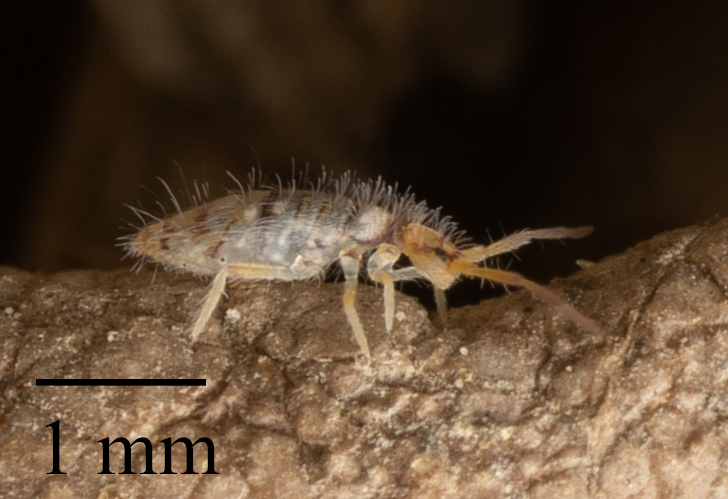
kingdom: Animalia
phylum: Arthropoda
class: Collembola
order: Entomobryomorpha
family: Entomobryidae
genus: Entomobrya
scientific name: Entomobrya atrocincta
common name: Springtail
